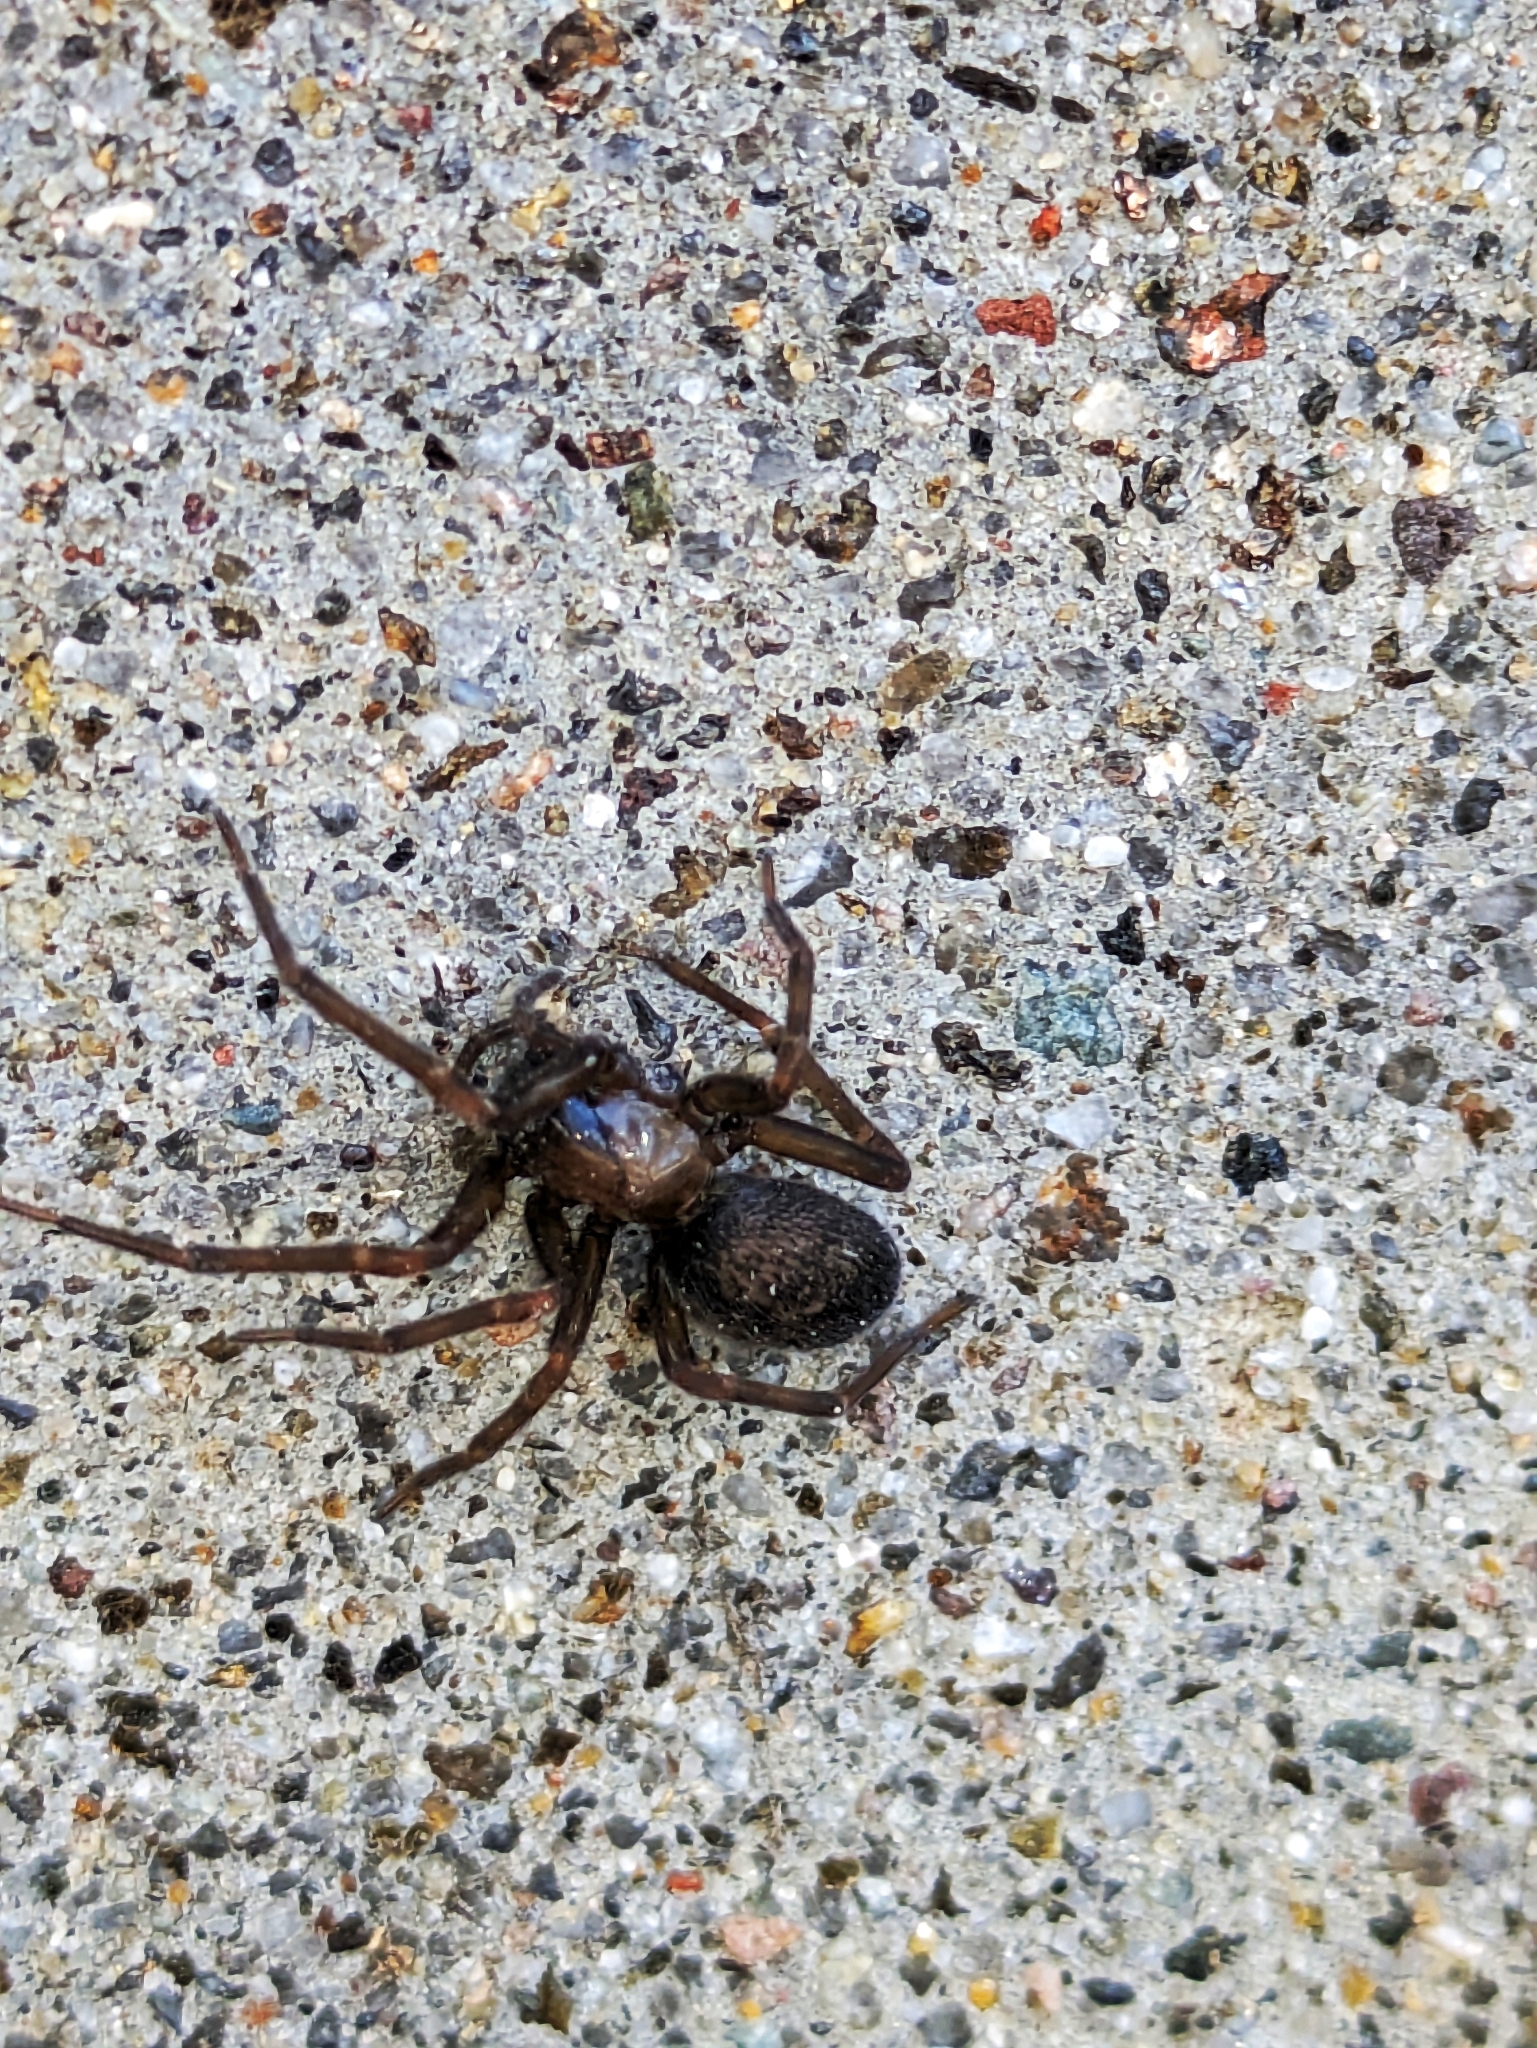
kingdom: Animalia
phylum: Arthropoda
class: Arachnida
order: Araneae
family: Desidae
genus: Metaltella
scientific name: Metaltella simoni
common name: Cribellate spider
